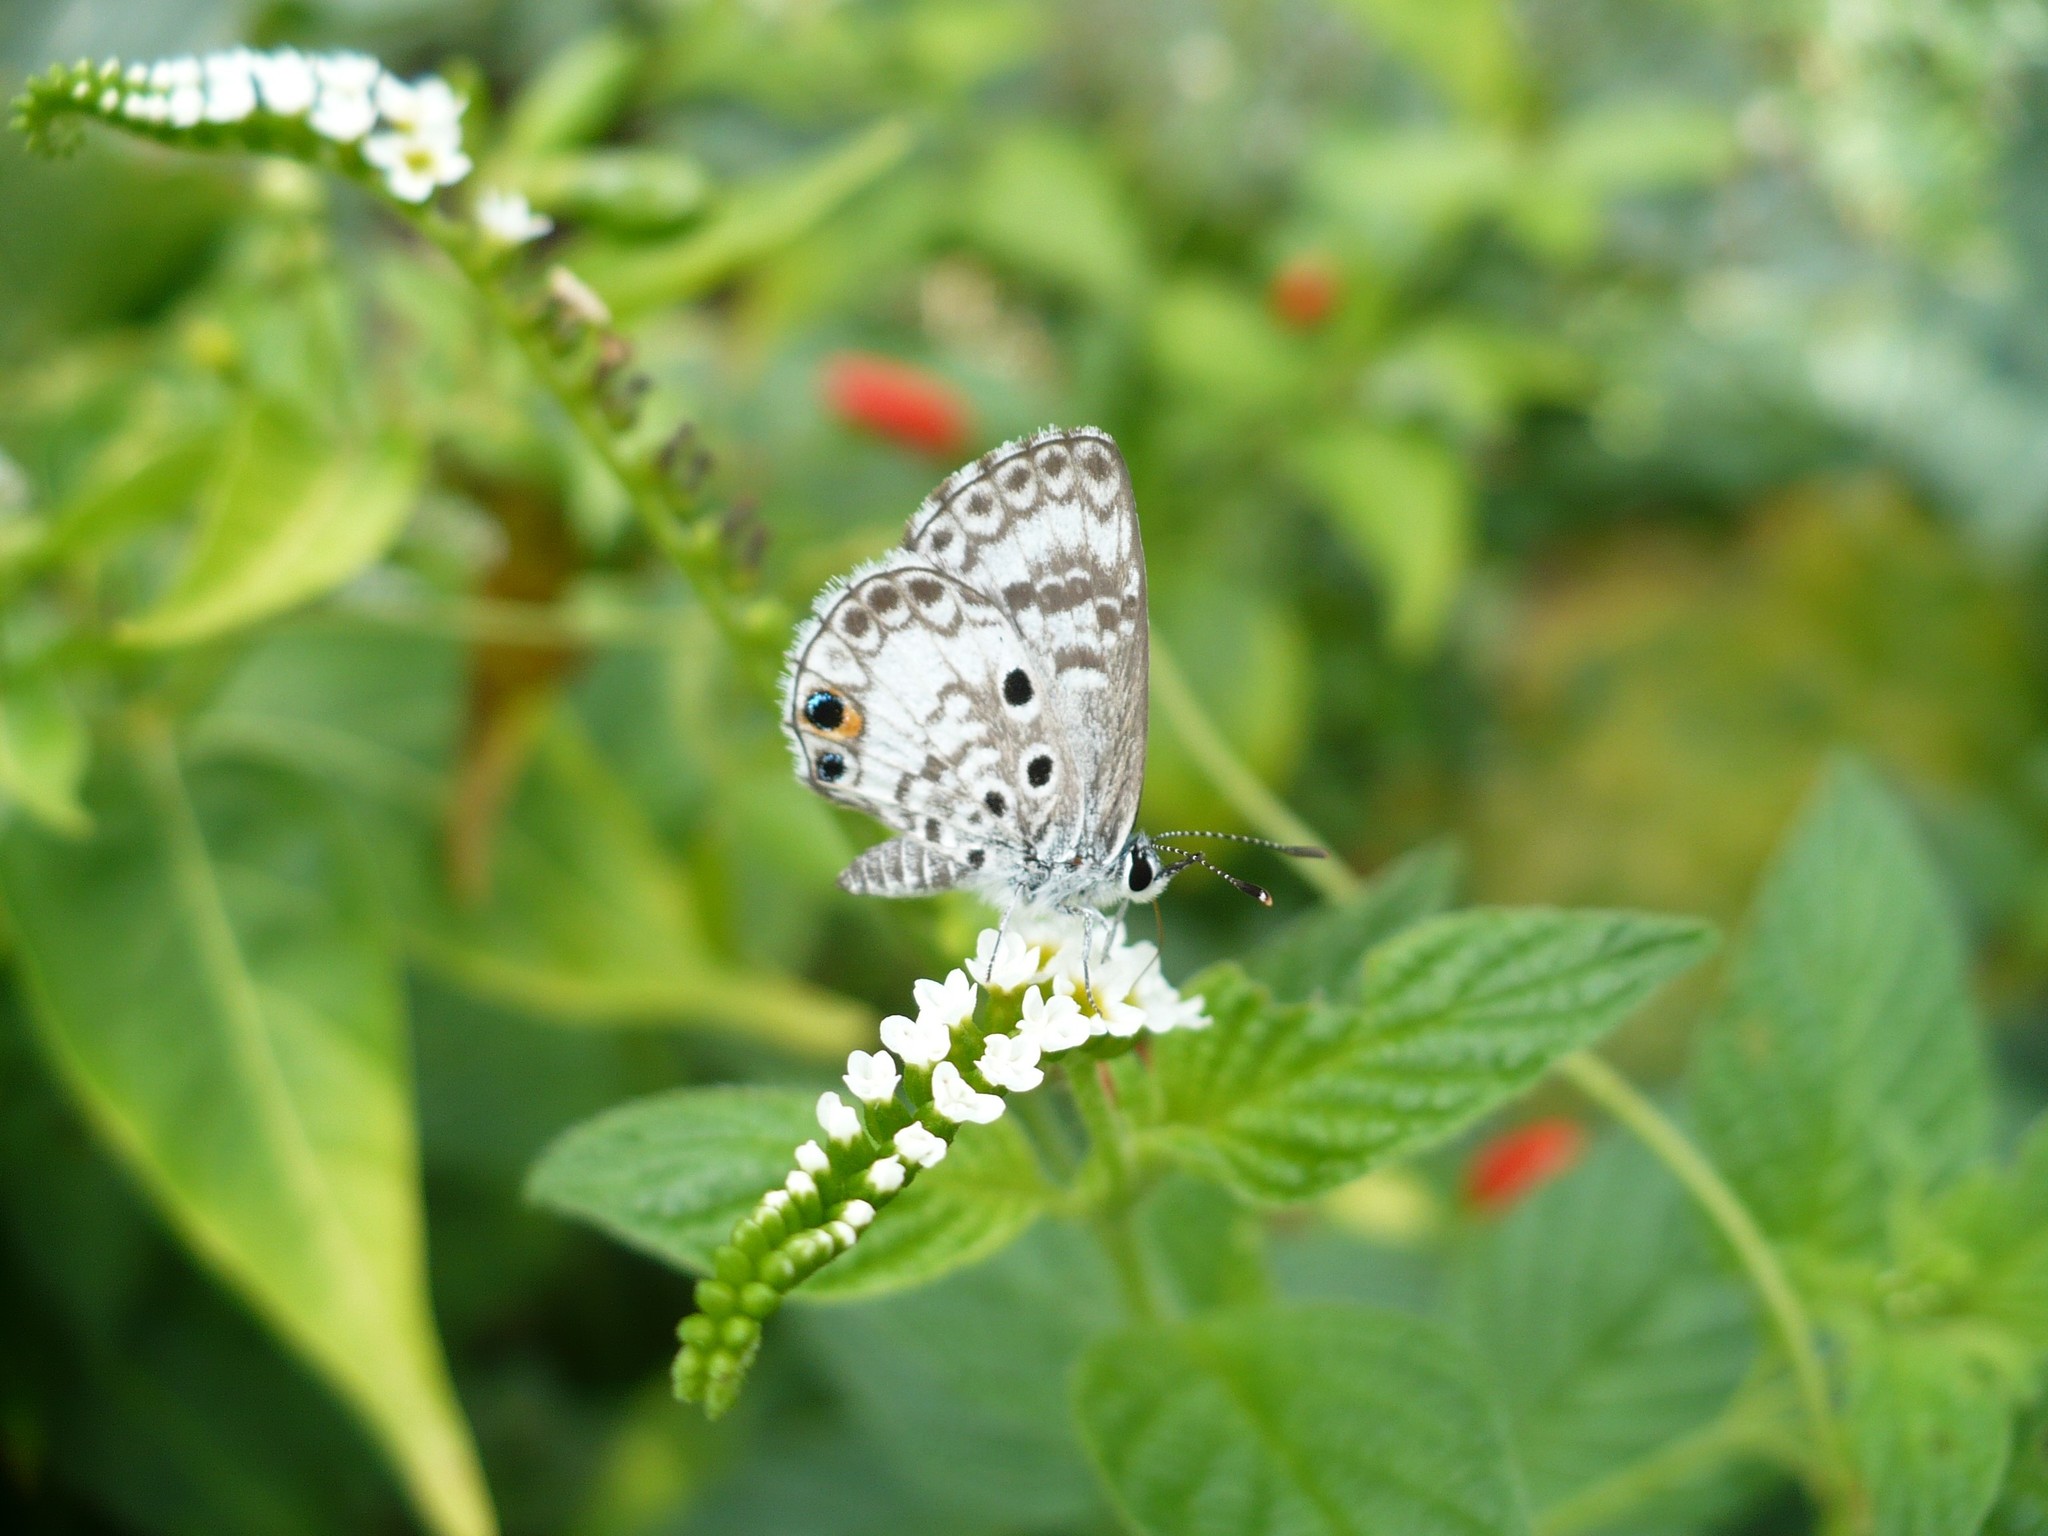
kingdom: Animalia
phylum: Arthropoda
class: Insecta
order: Lepidoptera
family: Lycaenidae
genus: Cyclargus
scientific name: Cyclargus thomasi
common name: Miami blue
